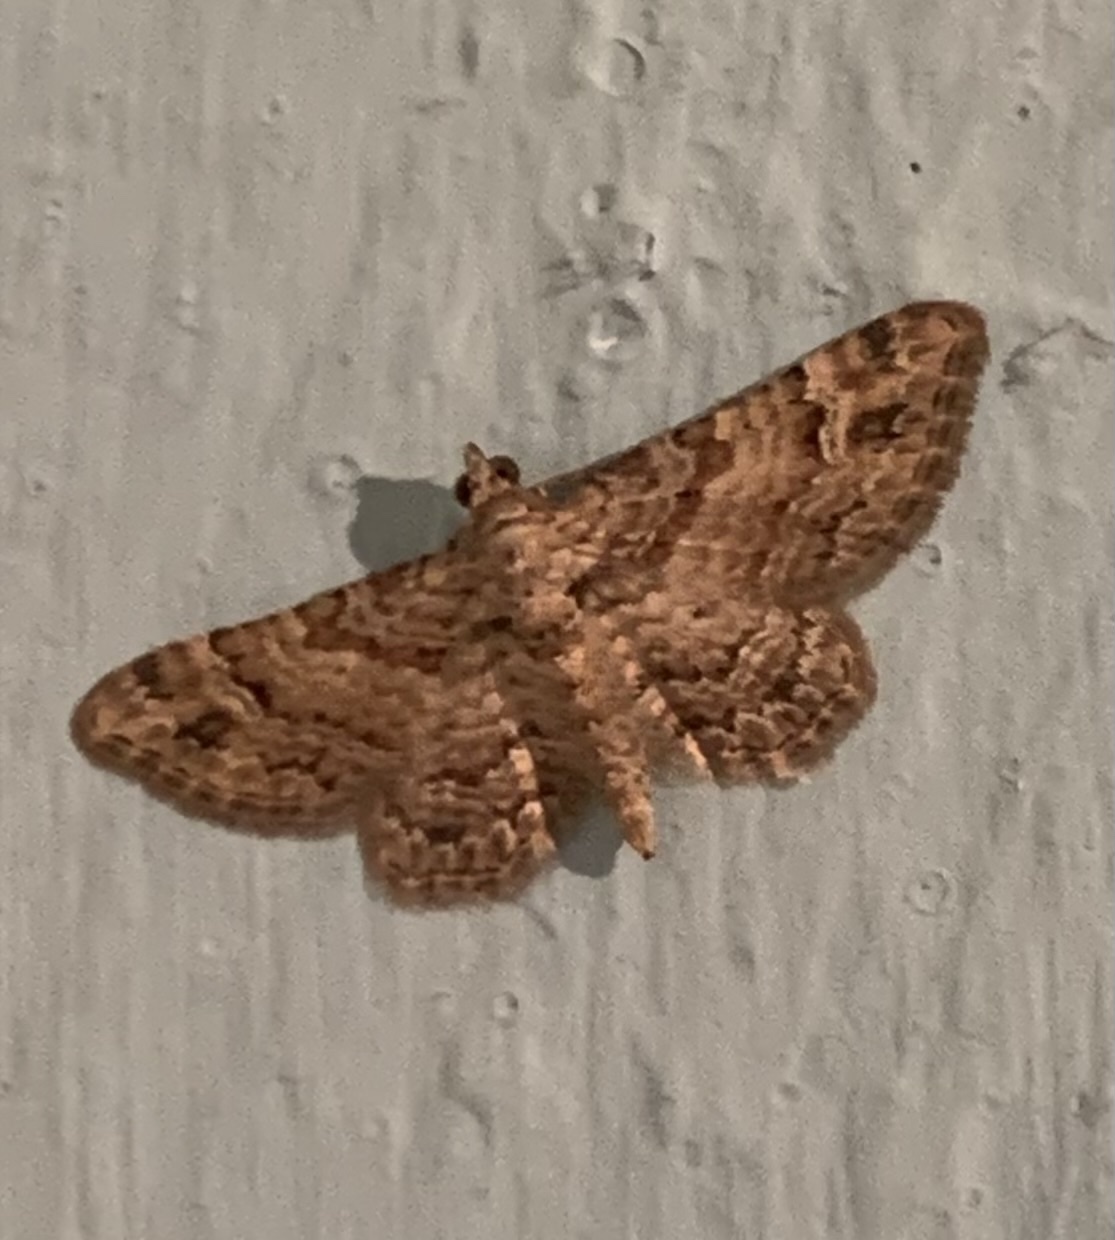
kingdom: Animalia
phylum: Arthropoda
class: Insecta
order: Lepidoptera
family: Geometridae
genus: Gymnoscelis
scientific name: Gymnoscelis rufifasciata
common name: Double-striped pug
